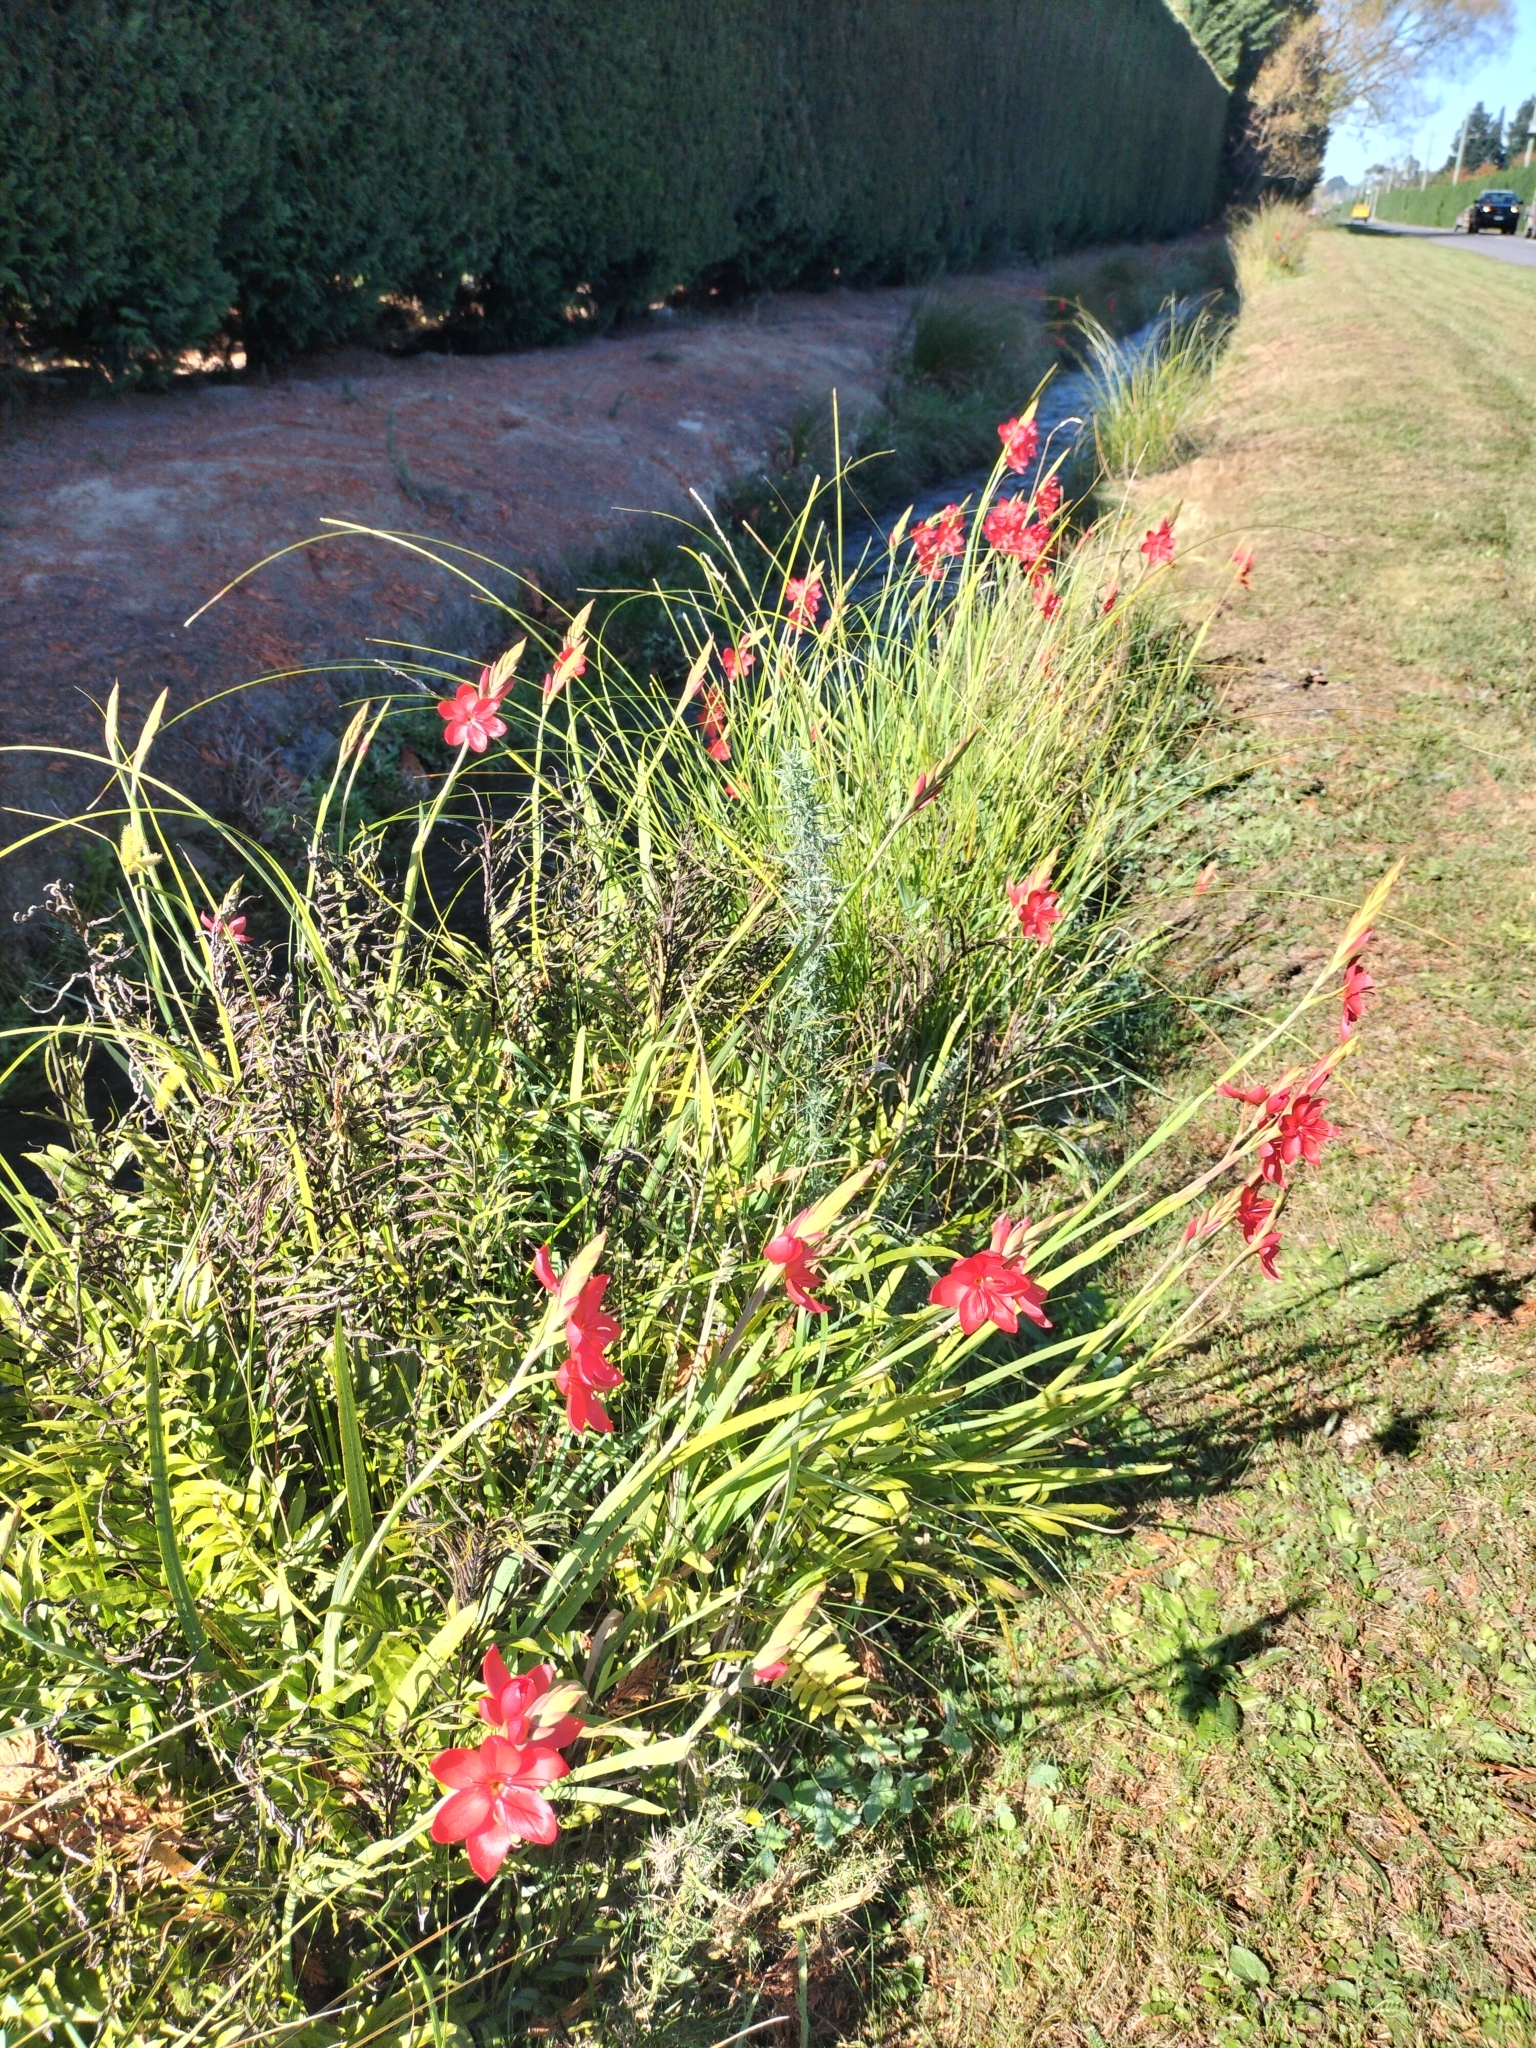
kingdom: Plantae
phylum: Tracheophyta
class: Liliopsida
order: Asparagales
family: Iridaceae
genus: Hesperantha
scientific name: Hesperantha coccinea
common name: River-lily
